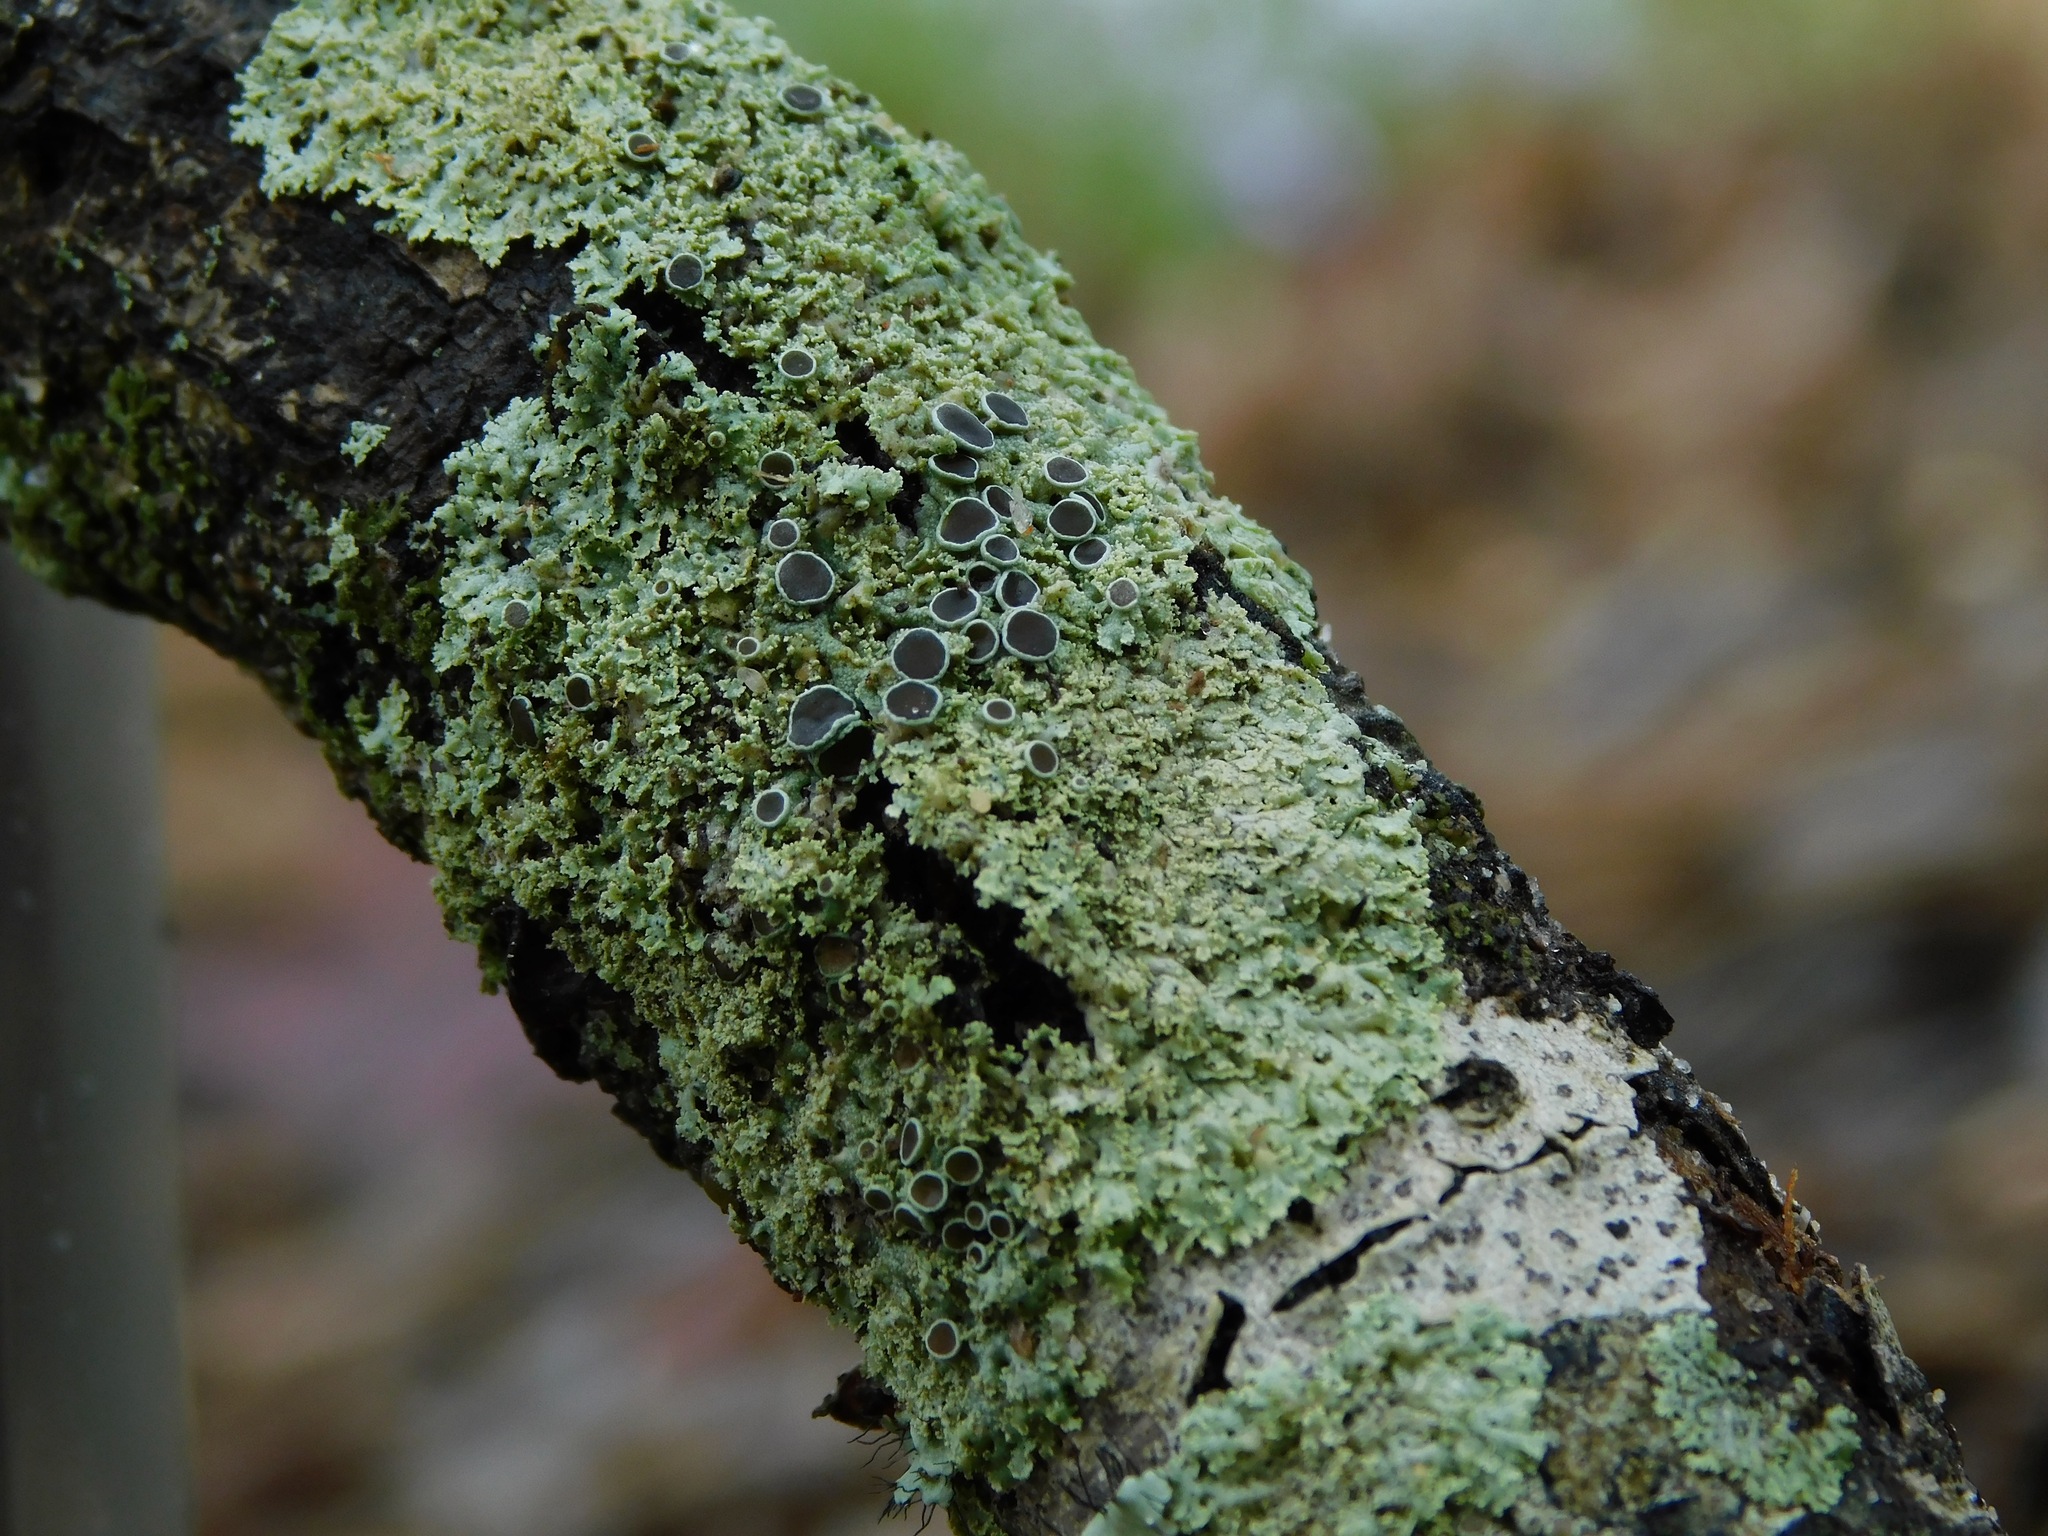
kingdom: Fungi
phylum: Ascomycota
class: Lecanoromycetes
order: Caliciales
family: Physciaceae
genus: Physcia
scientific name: Physcia millegrana
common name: Rosette lichen
